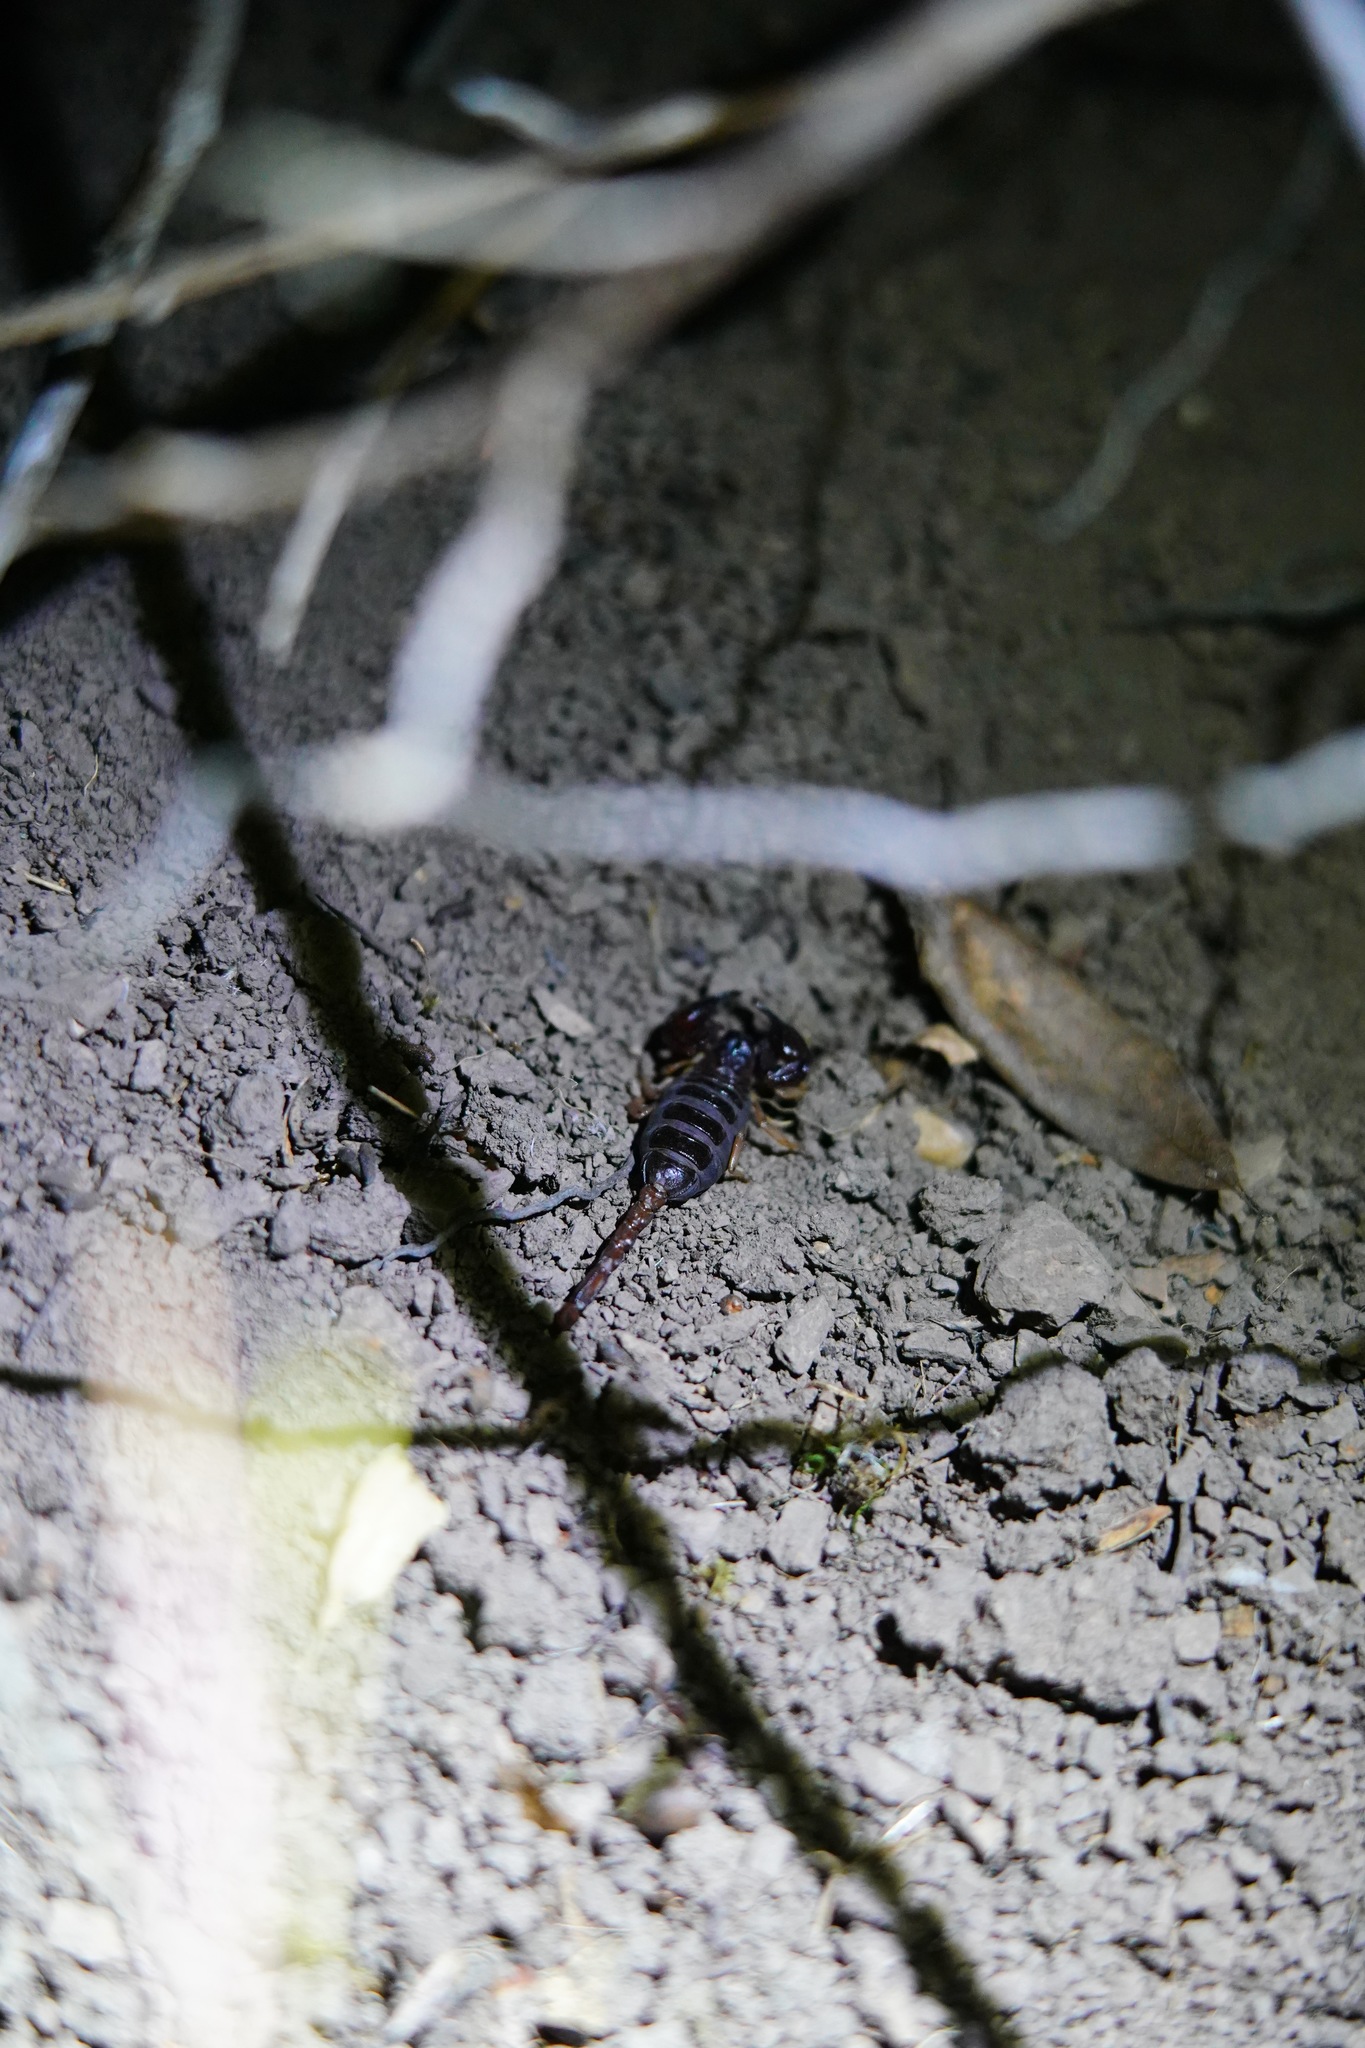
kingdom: Animalia
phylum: Arthropoda
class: Arachnida
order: Scorpiones
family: Chactidae
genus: Uroctonus
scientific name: Uroctonus mordax
